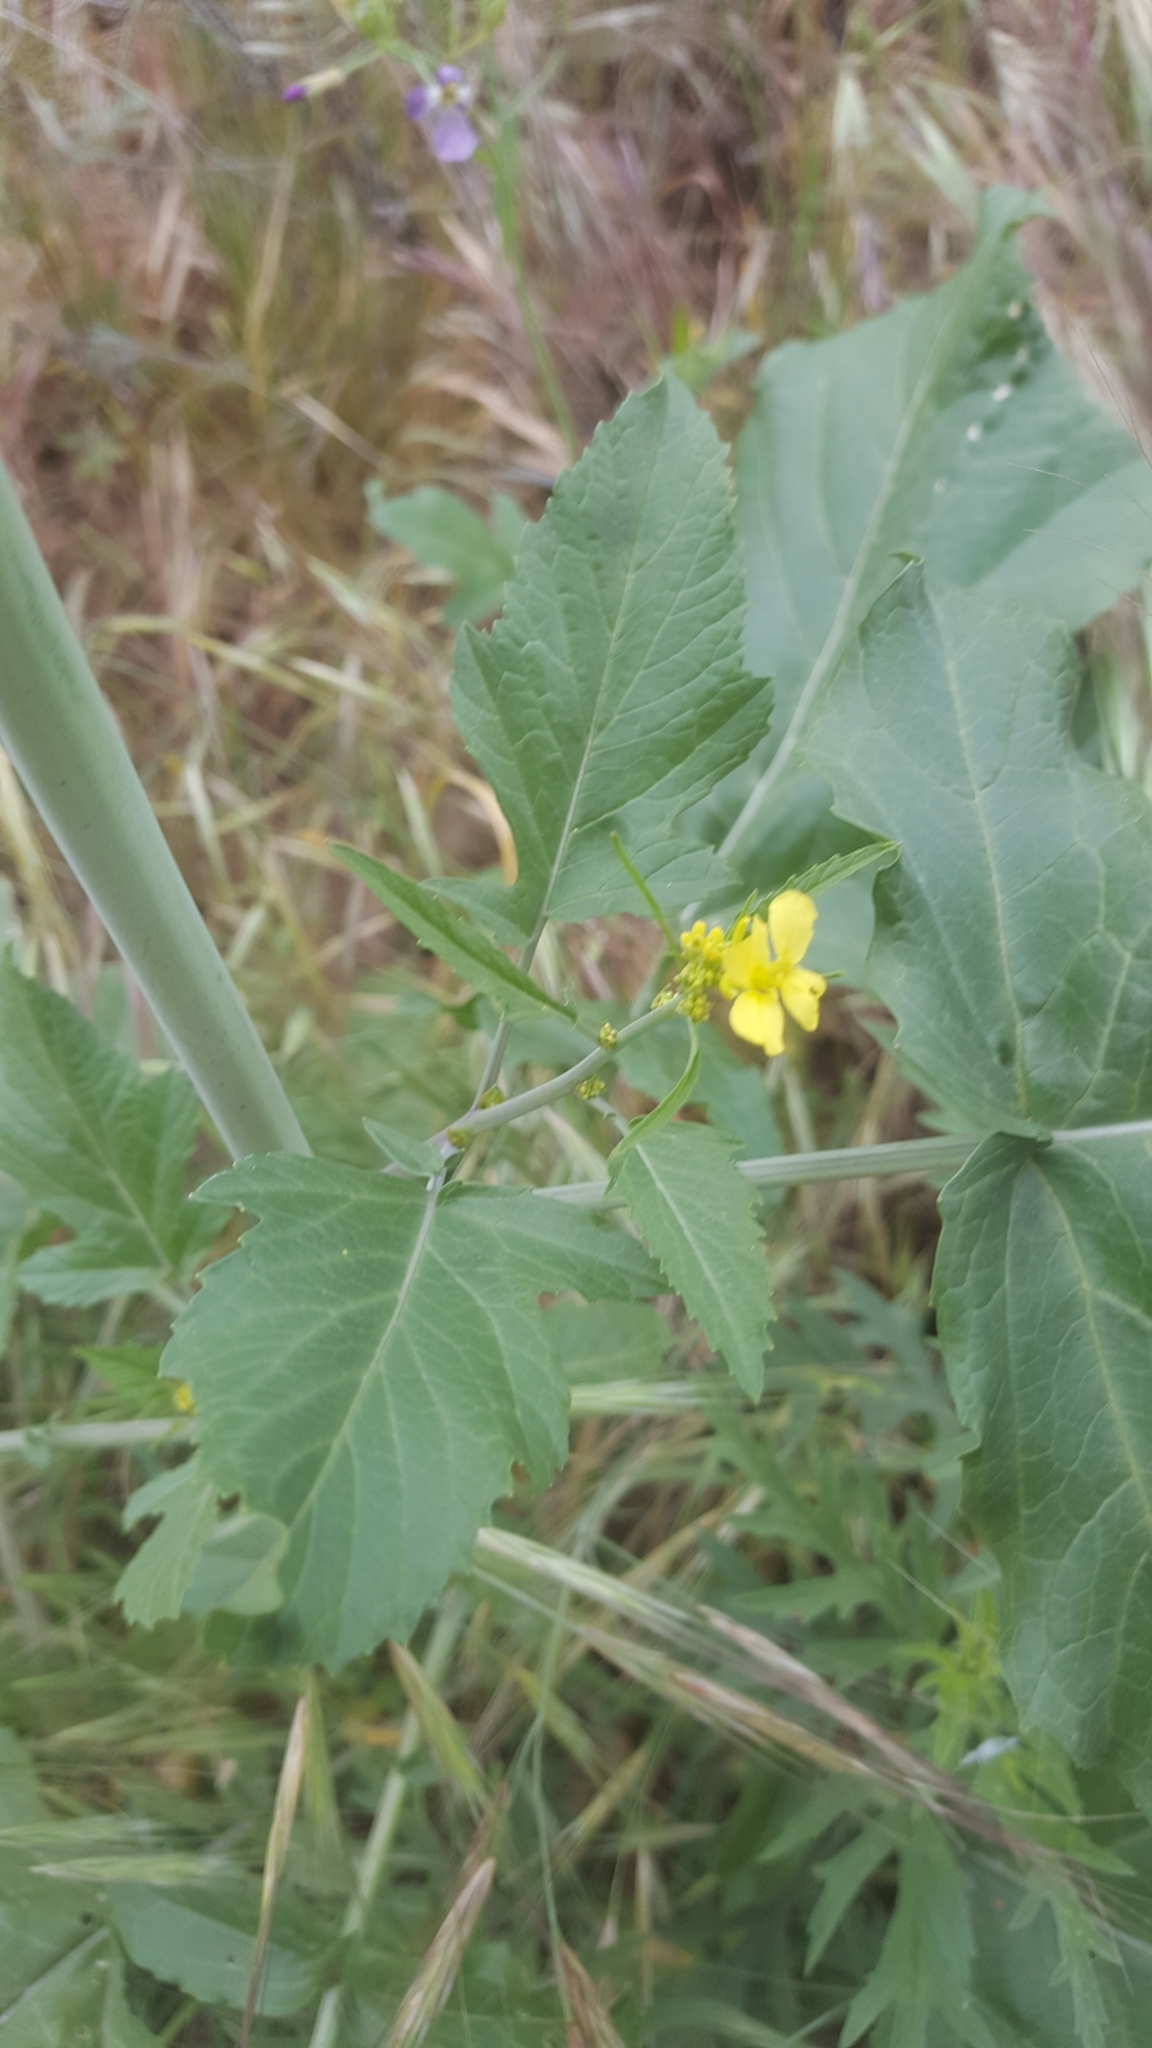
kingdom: Plantae
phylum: Tracheophyta
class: Magnoliopsida
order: Brassicales
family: Brassicaceae
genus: Brassica
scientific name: Brassica nigra
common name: Black mustard
